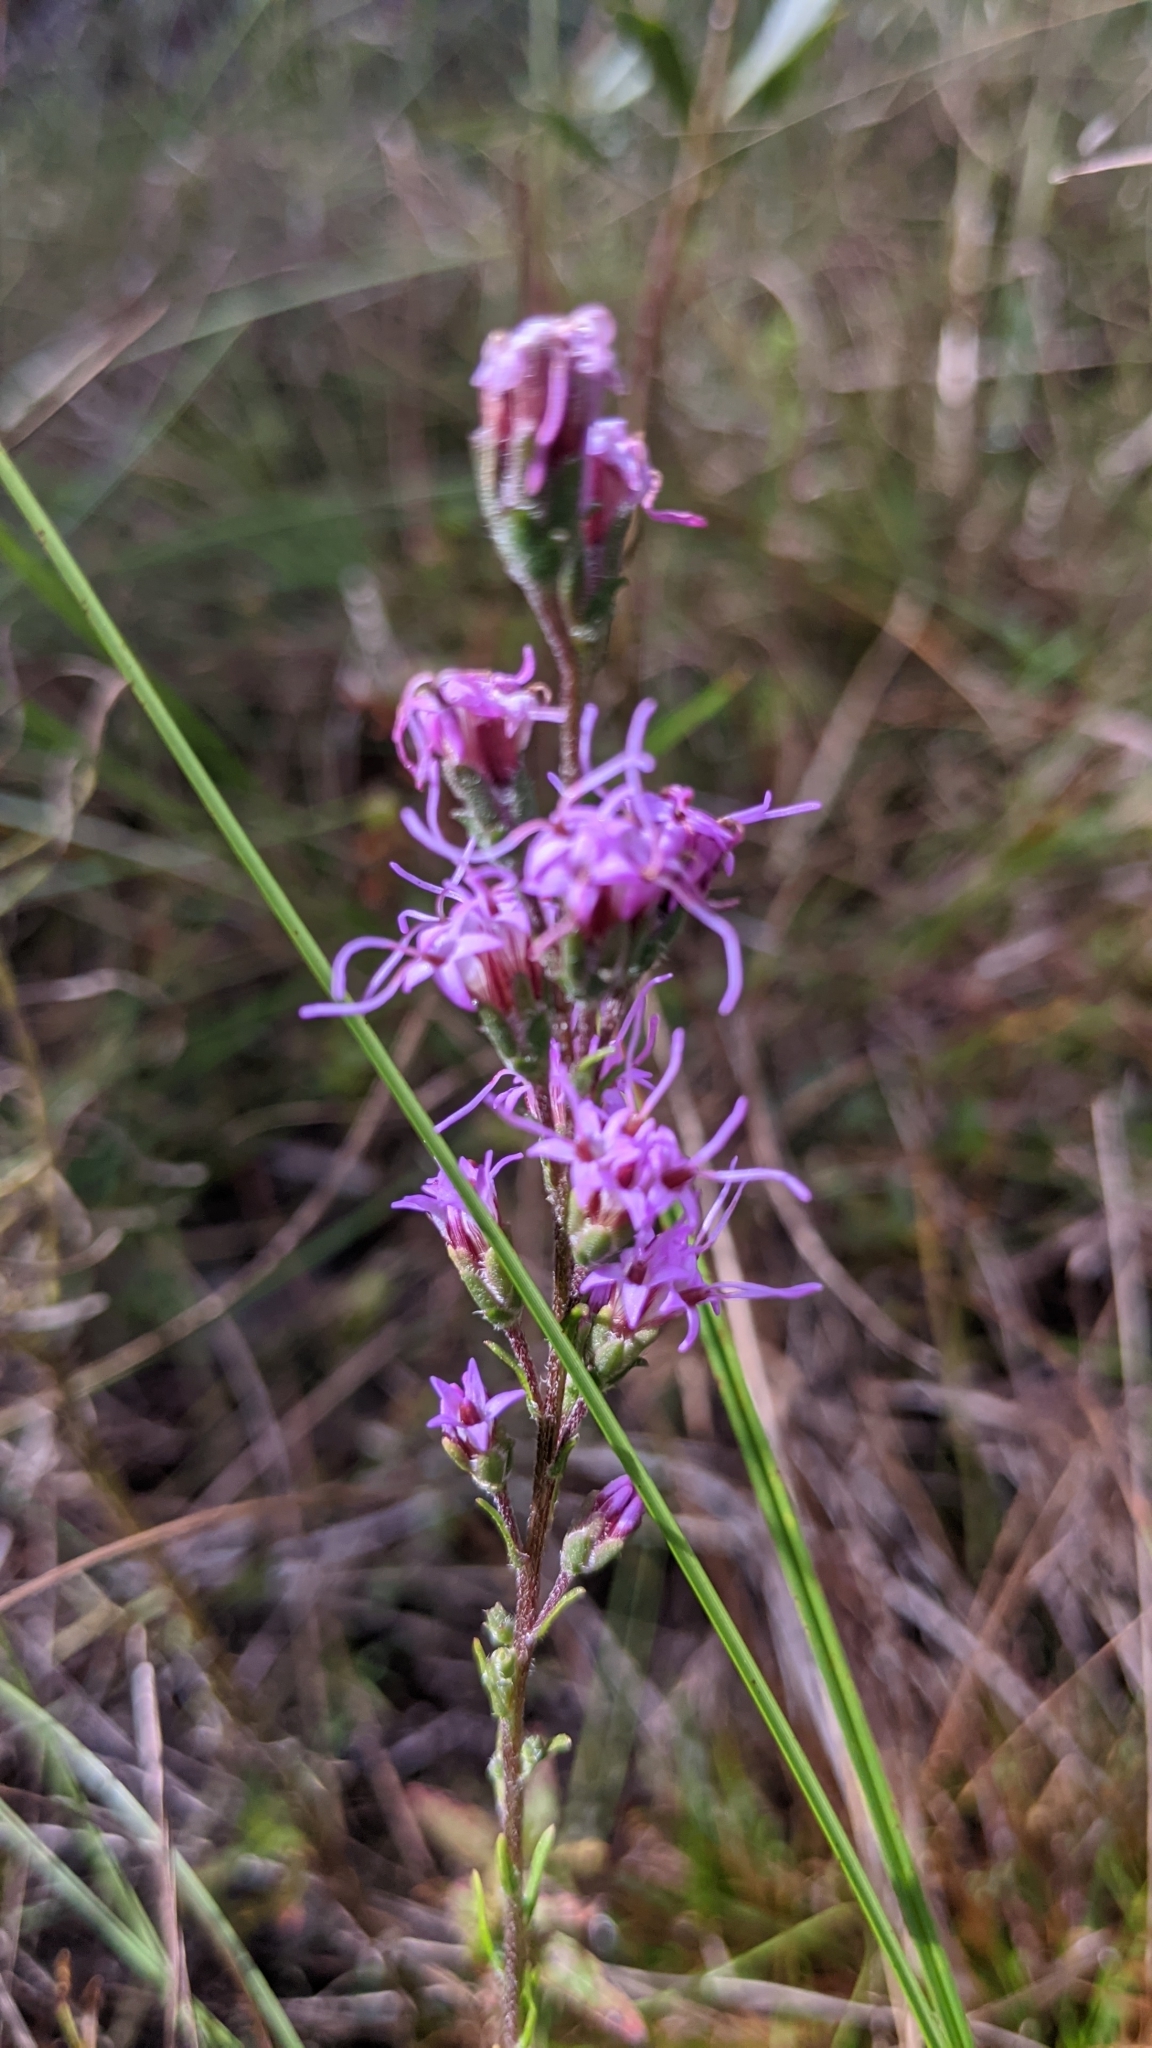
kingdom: Plantae
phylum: Tracheophyta
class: Magnoliopsida
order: Asterales
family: Asteraceae
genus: Liatris
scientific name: Liatris gracilis
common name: Slender gayfeather
